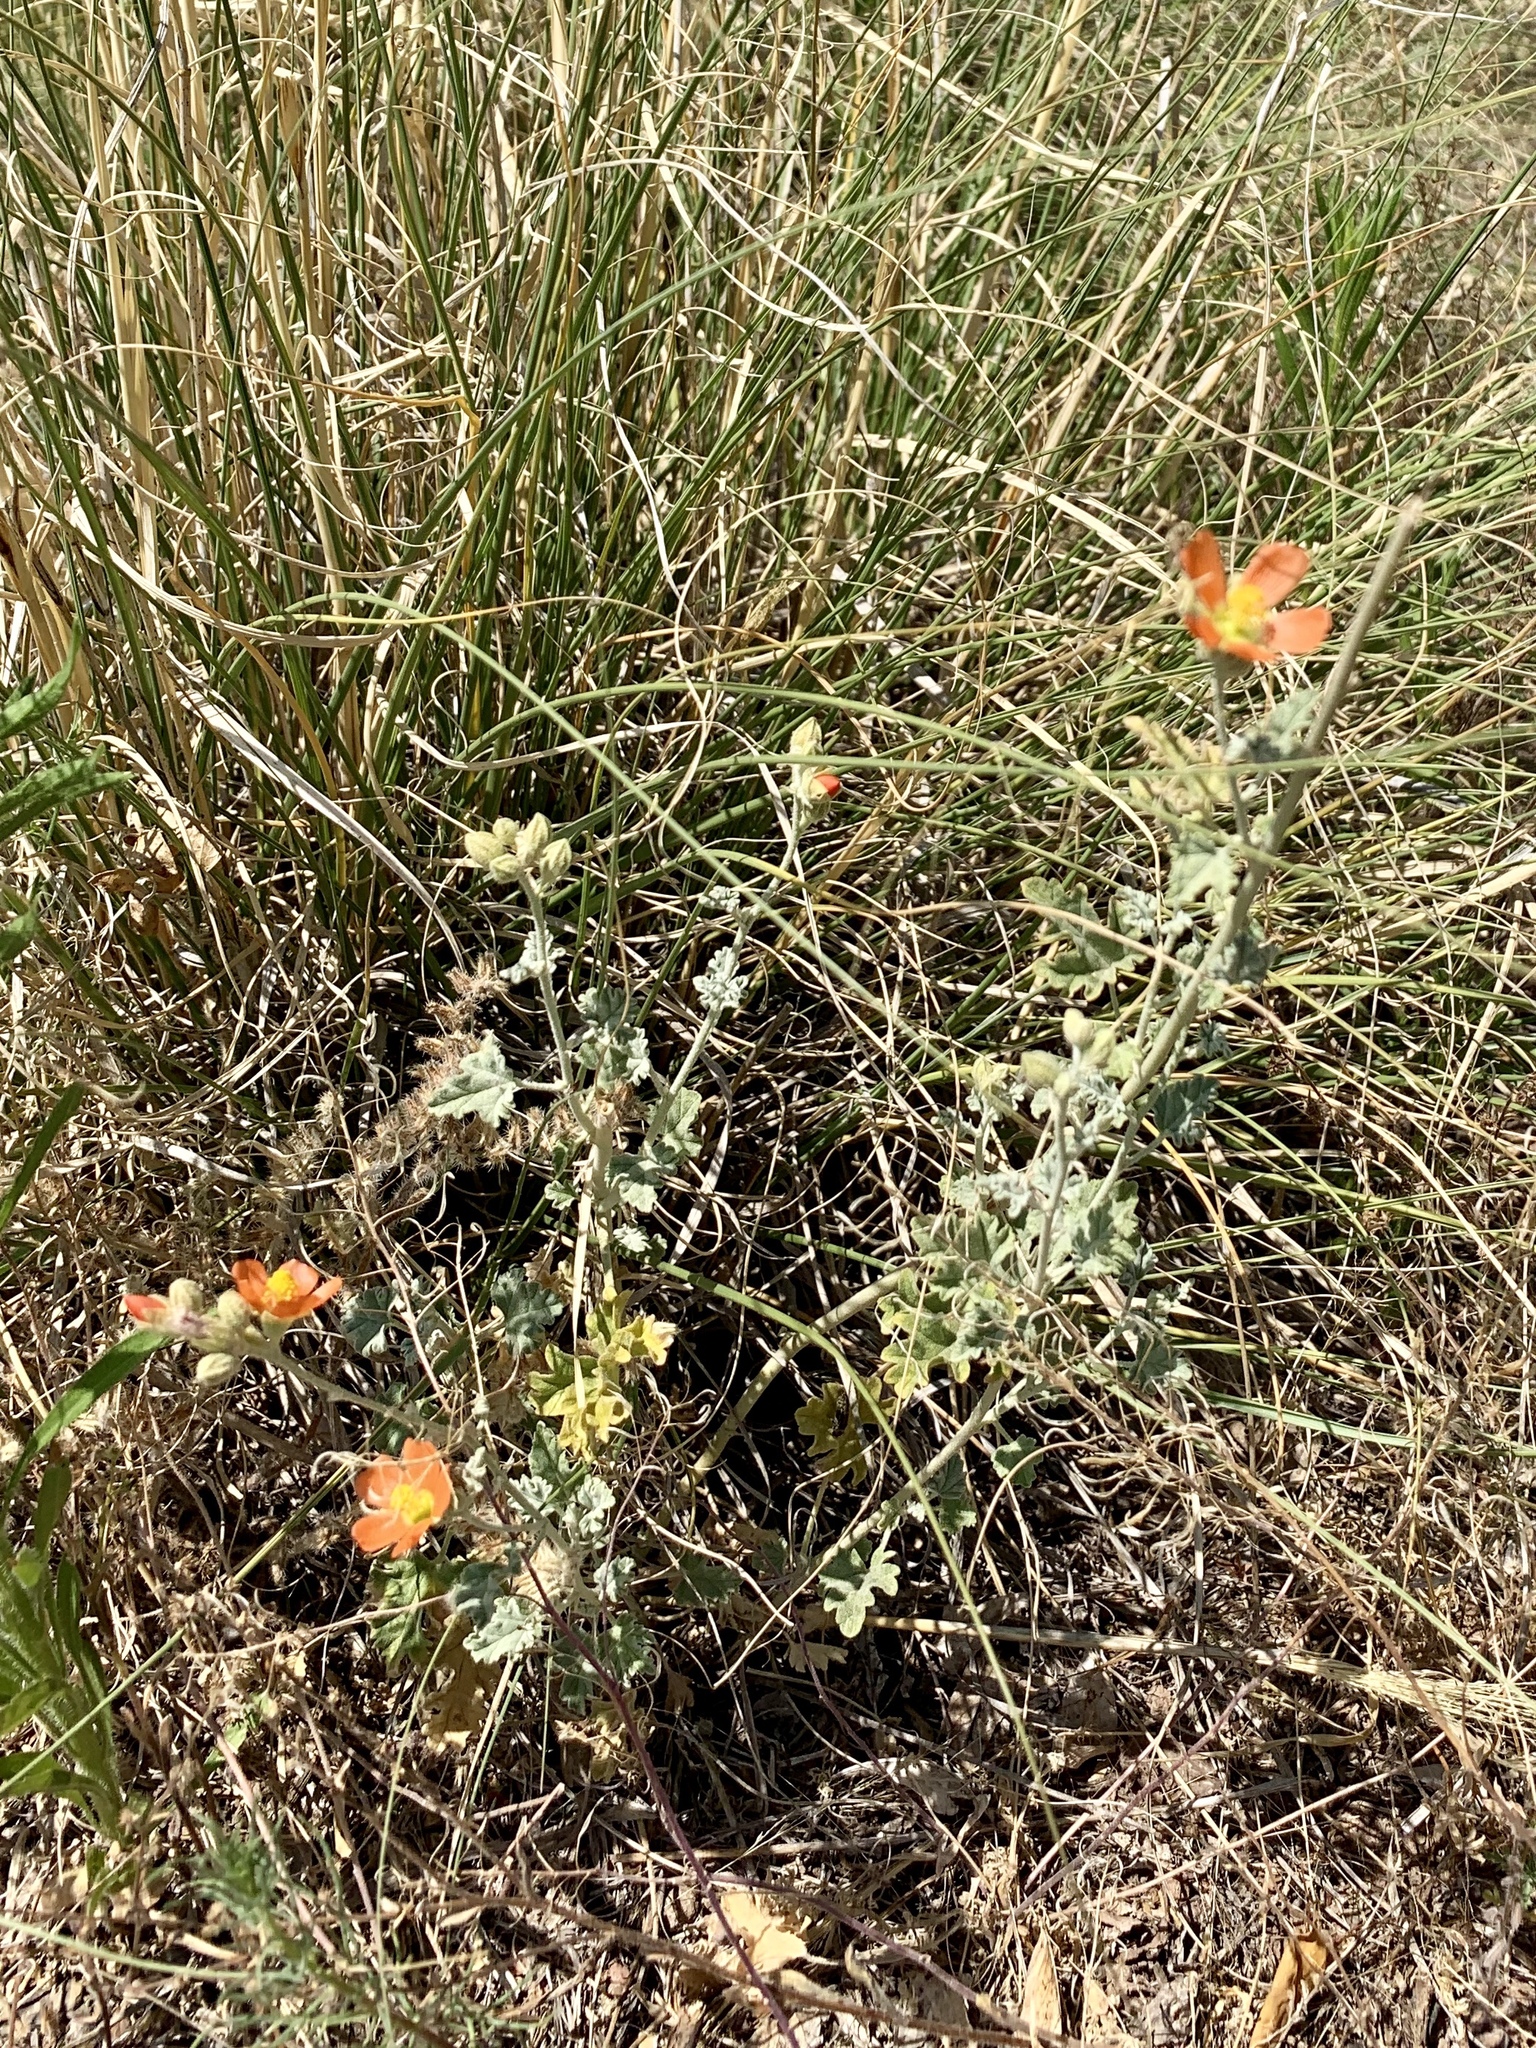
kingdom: Plantae
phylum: Tracheophyta
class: Magnoliopsida
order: Malvales
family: Malvaceae
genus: Sphaeralcea
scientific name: Sphaeralcea ambigua
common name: Apricot globe-mallow
